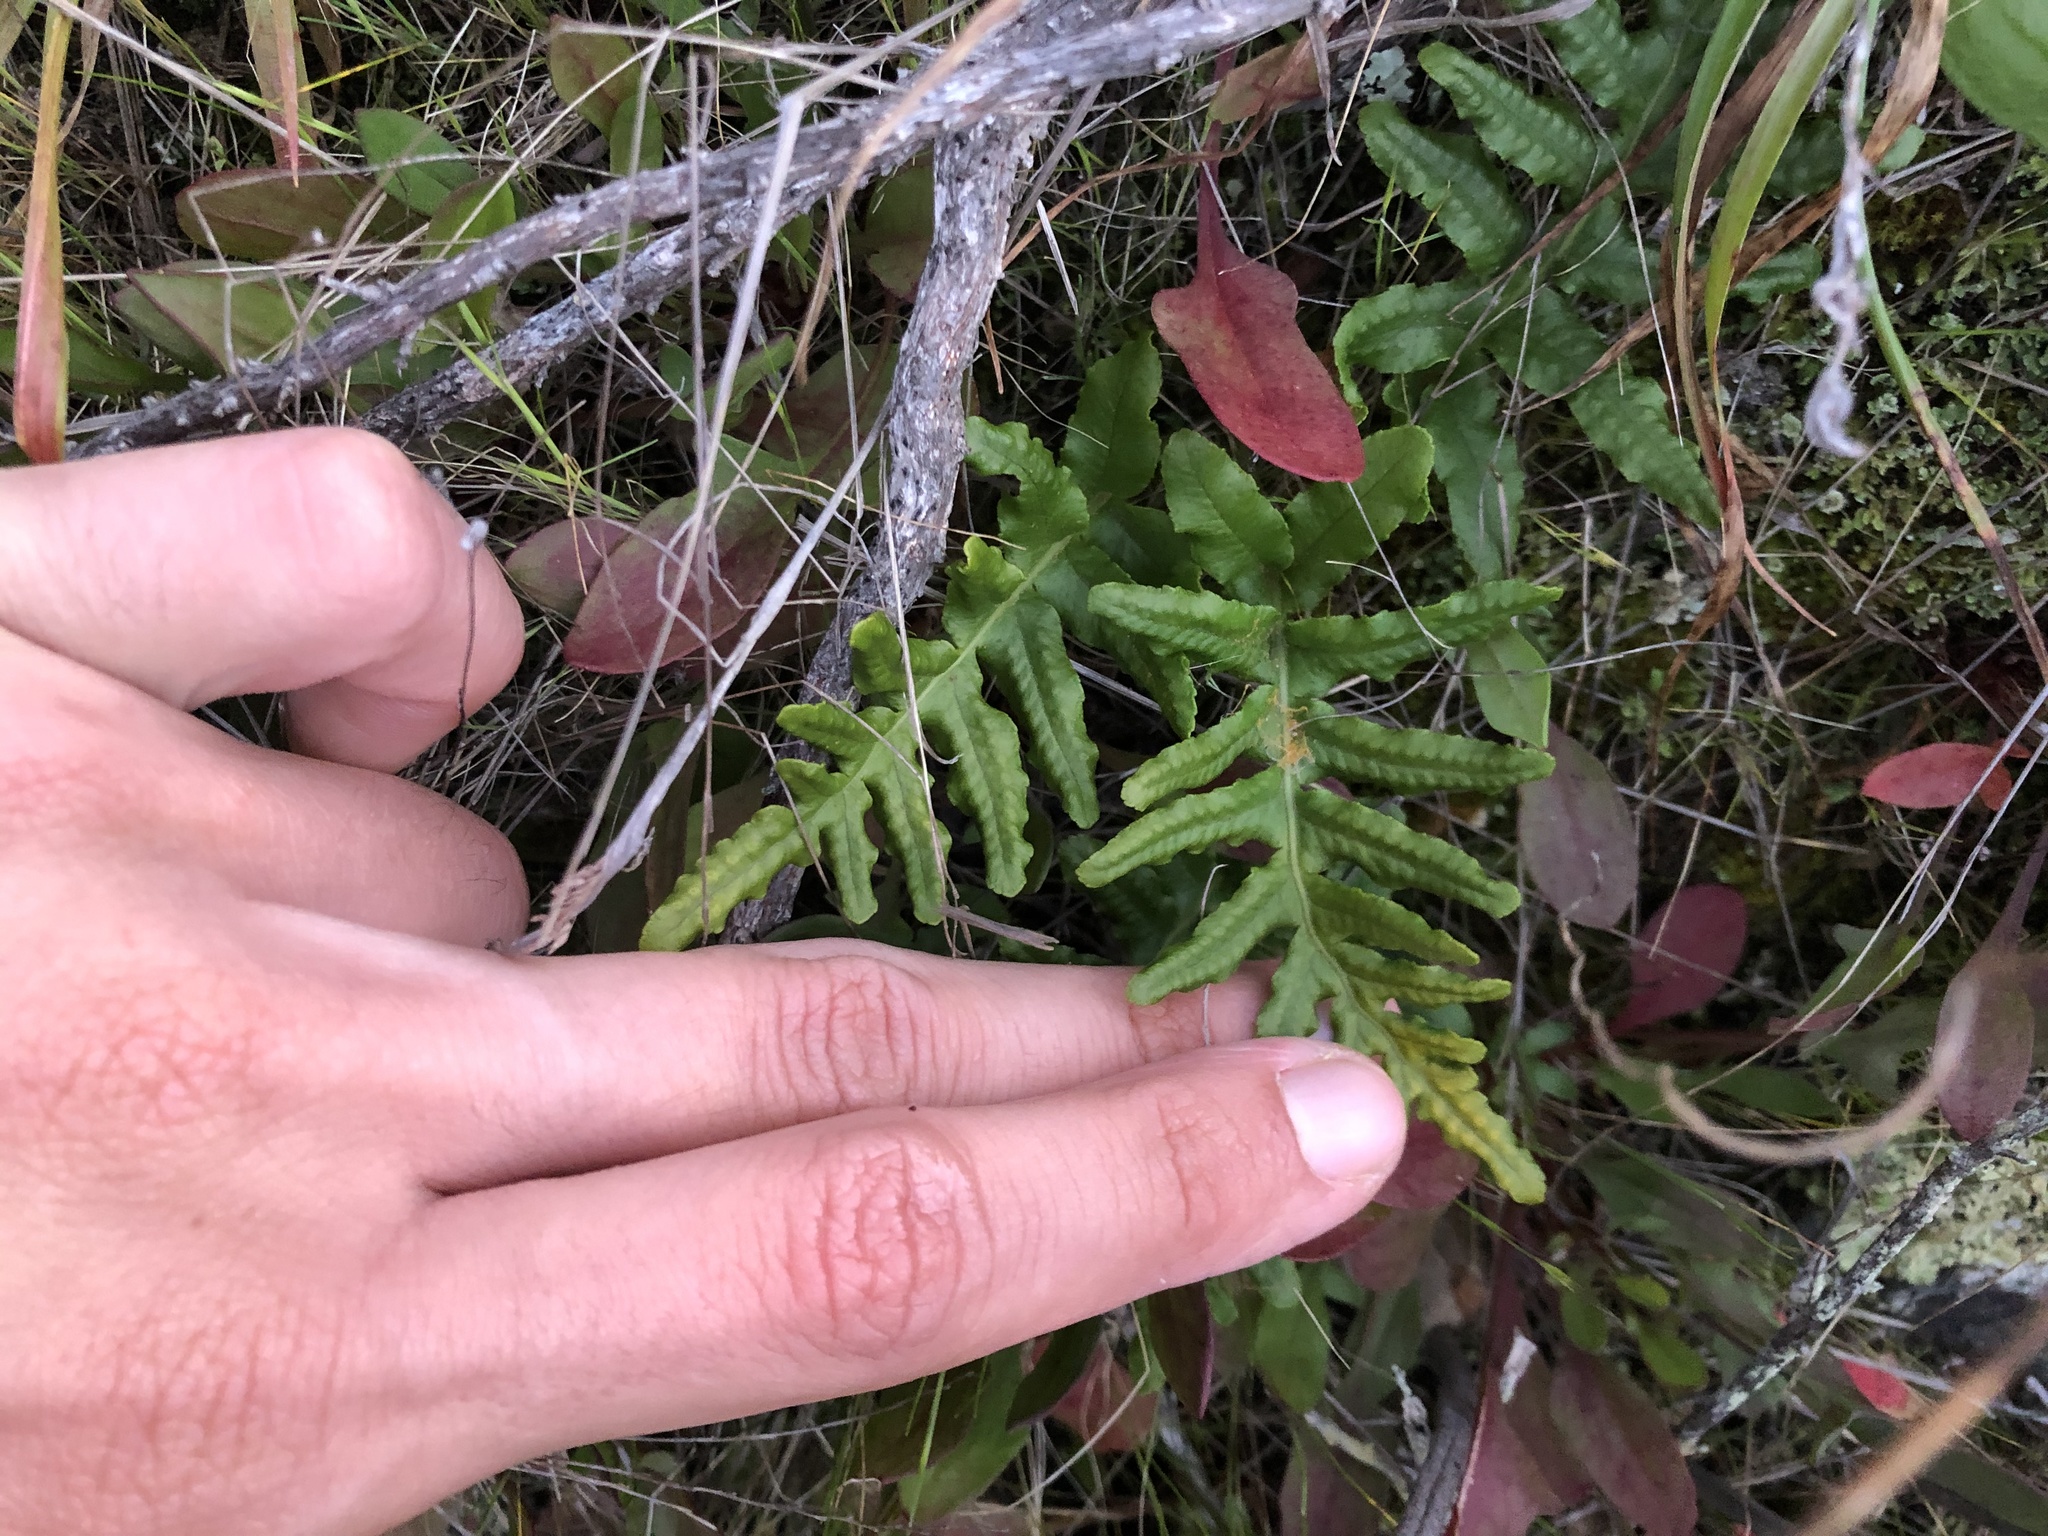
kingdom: Plantae
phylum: Tracheophyta
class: Polypodiopsida
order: Polypodiales
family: Polypodiaceae
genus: Polypodium
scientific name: Polypodium californicum
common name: California polypody
